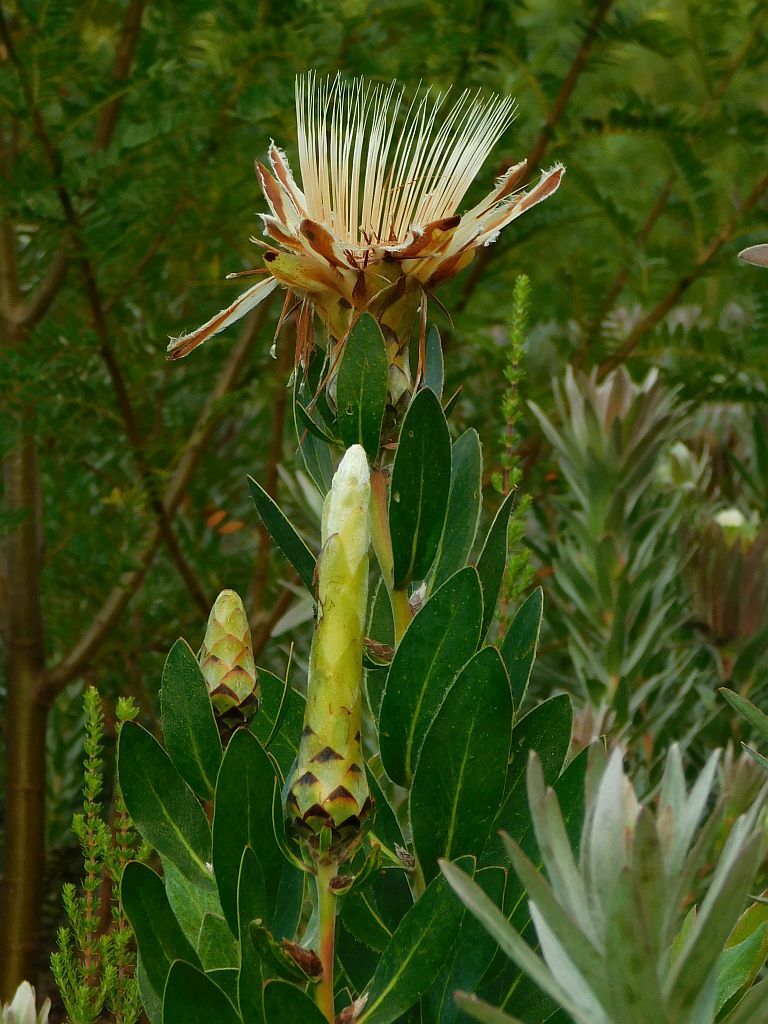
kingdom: Plantae
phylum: Tracheophyta
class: Magnoliopsida
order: Proteales
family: Proteaceae
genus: Protea
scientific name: Protea aurea
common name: Shuttlecock sugarbush
